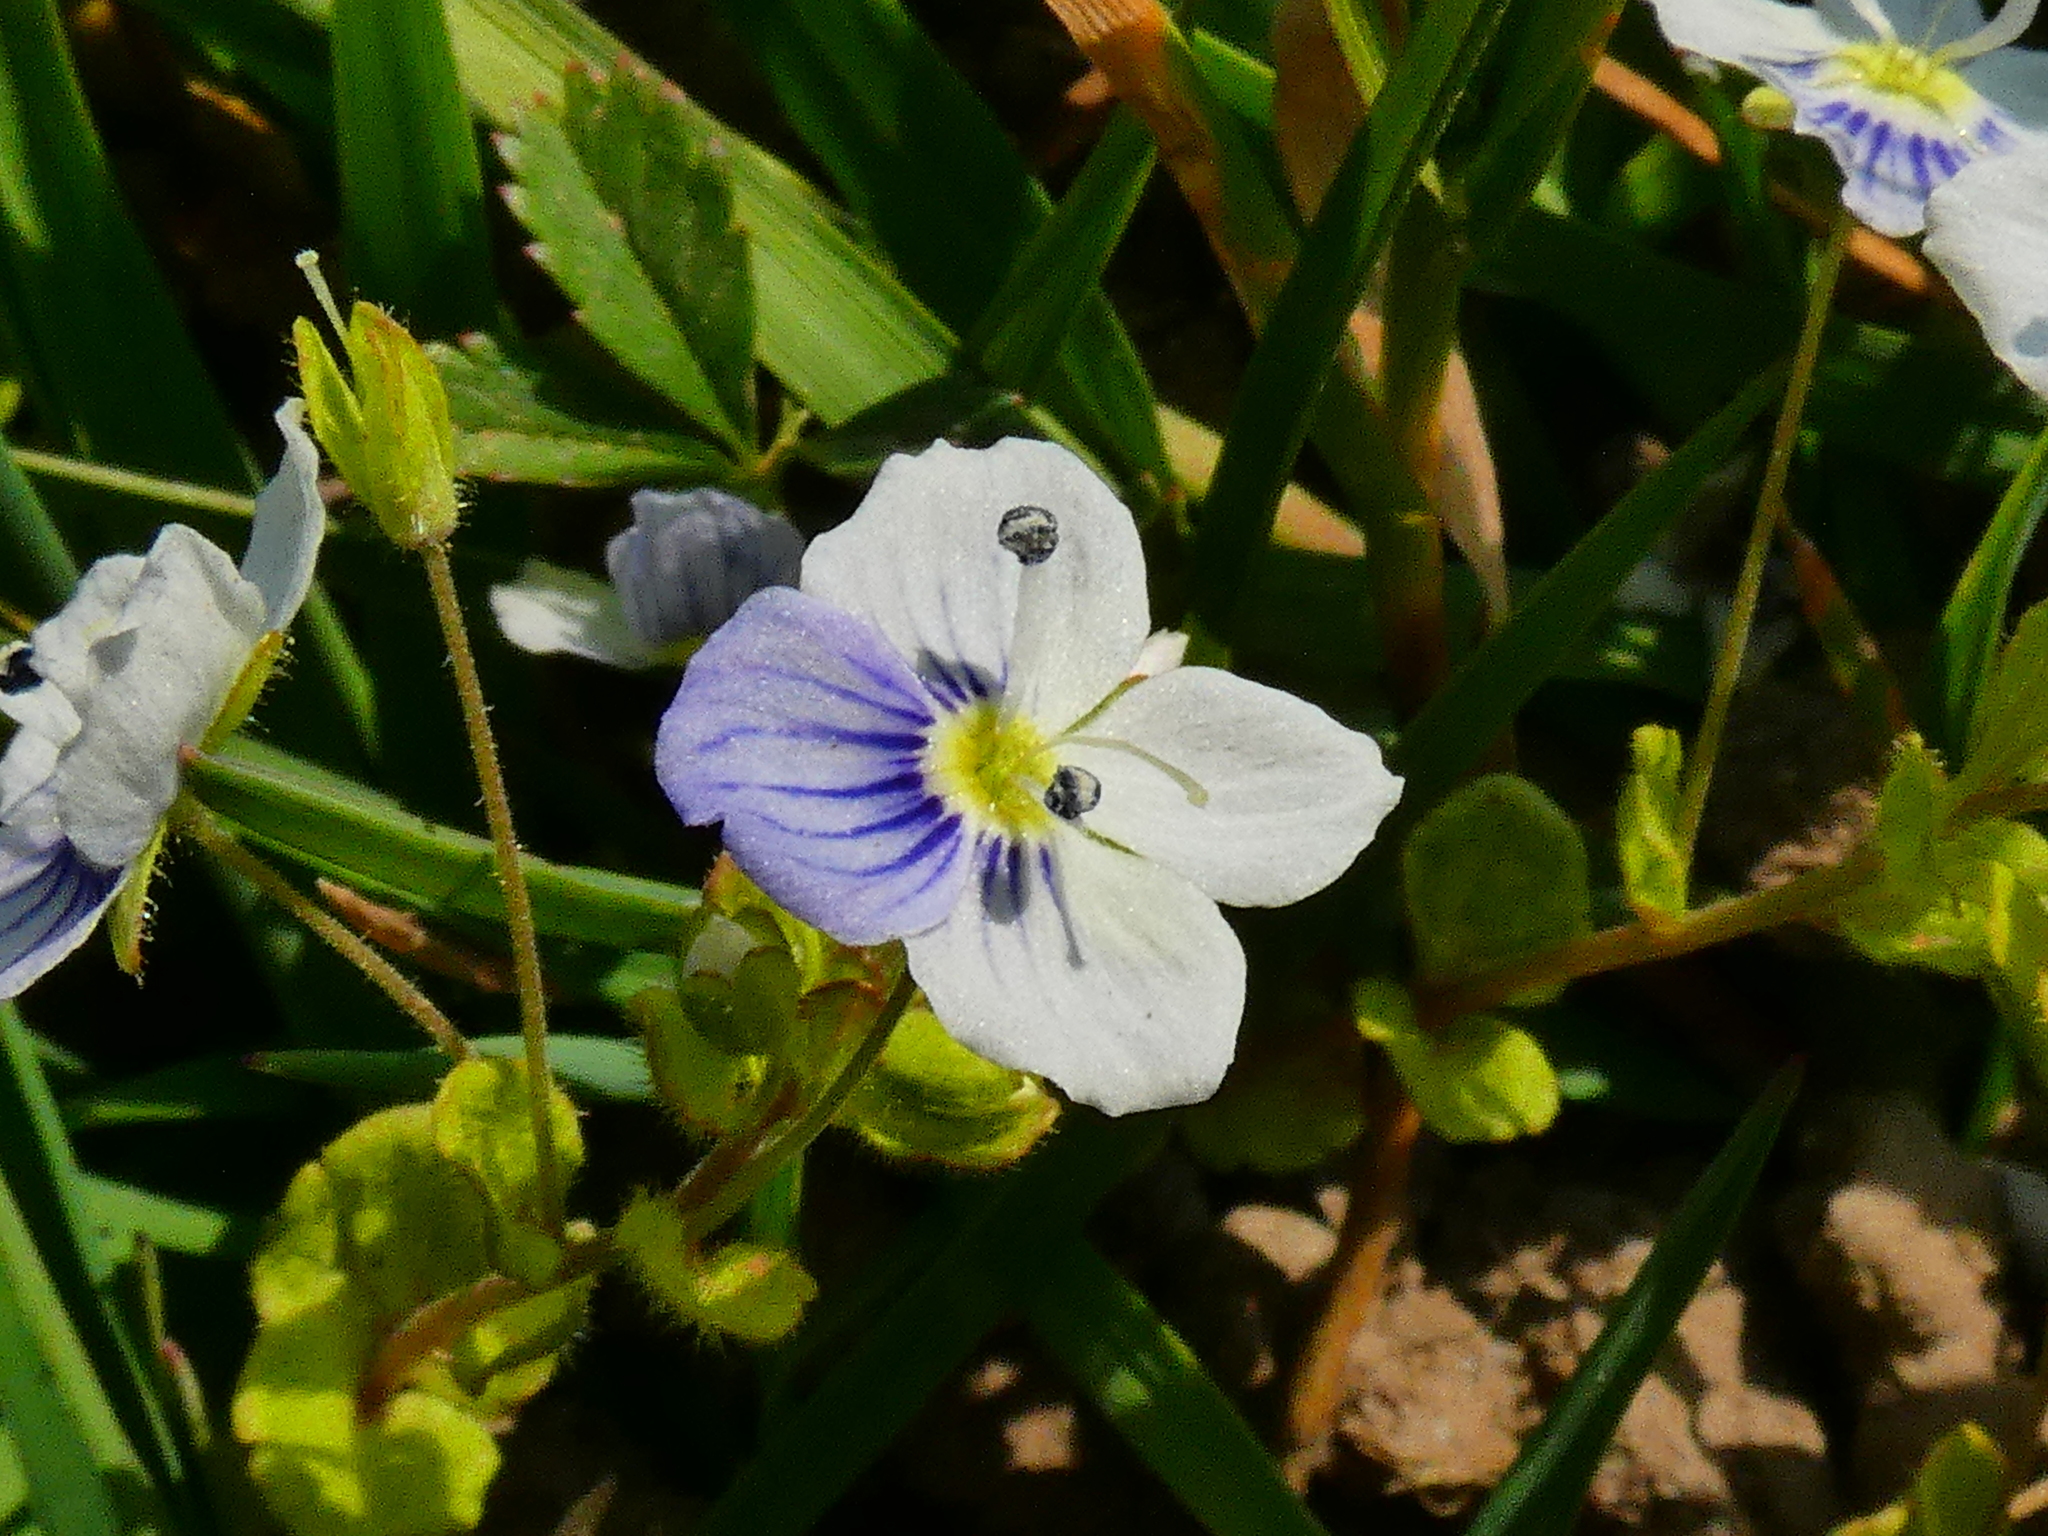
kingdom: Plantae
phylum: Tracheophyta
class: Magnoliopsida
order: Lamiales
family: Plantaginaceae
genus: Veronica
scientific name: Veronica filiformis
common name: Slender speedwell
